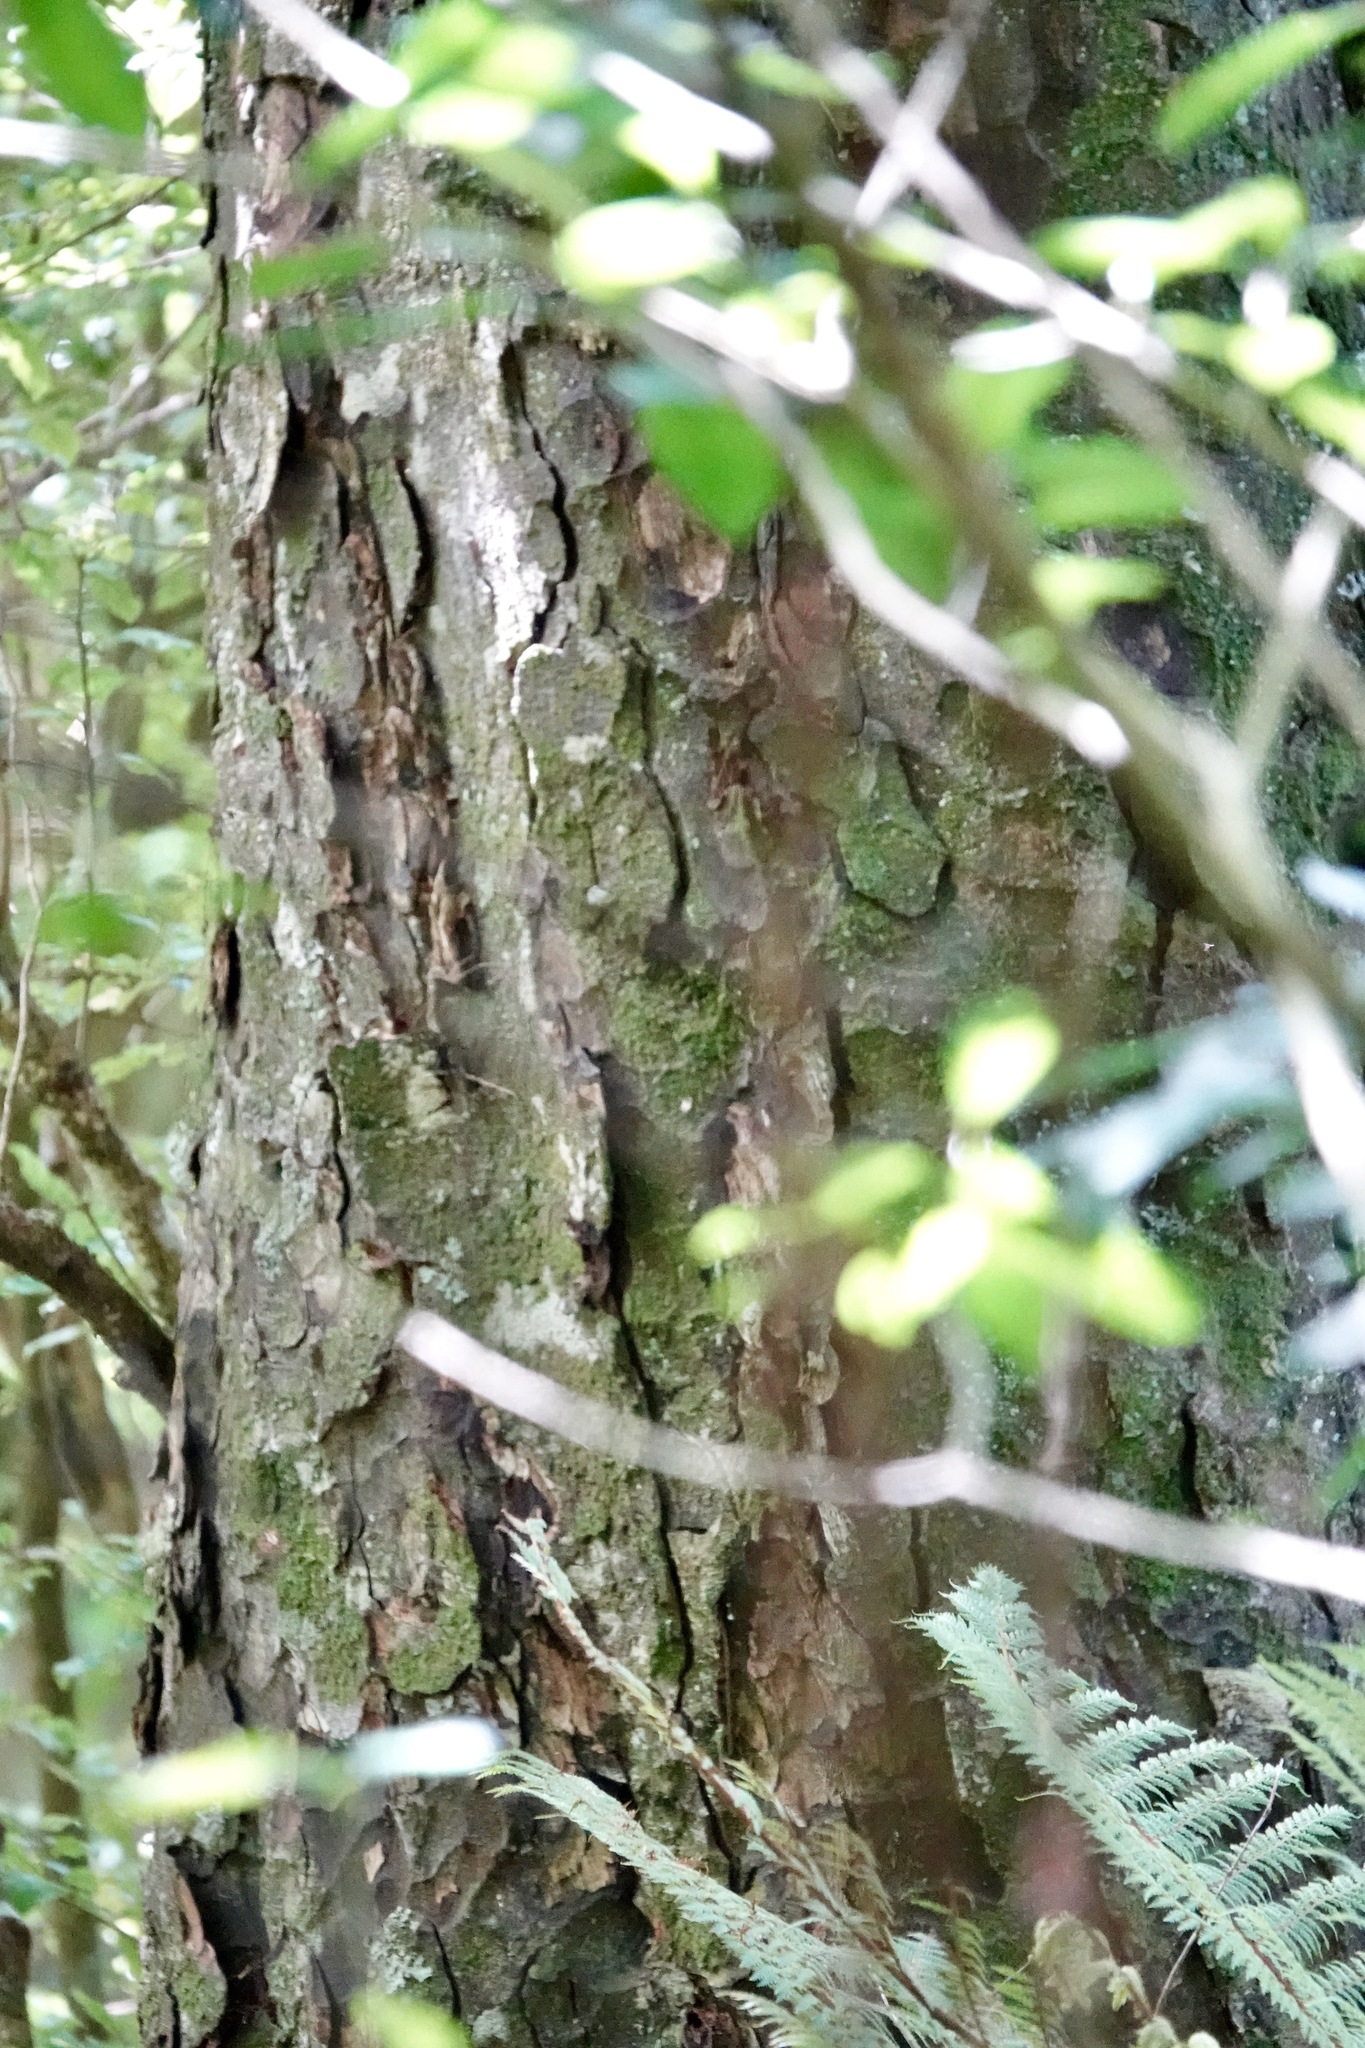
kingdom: Plantae
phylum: Tracheophyta
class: Pinopsida
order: Pinales
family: Podocarpaceae
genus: Dacrycarpus
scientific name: Dacrycarpus dacrydioides
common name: White pine
